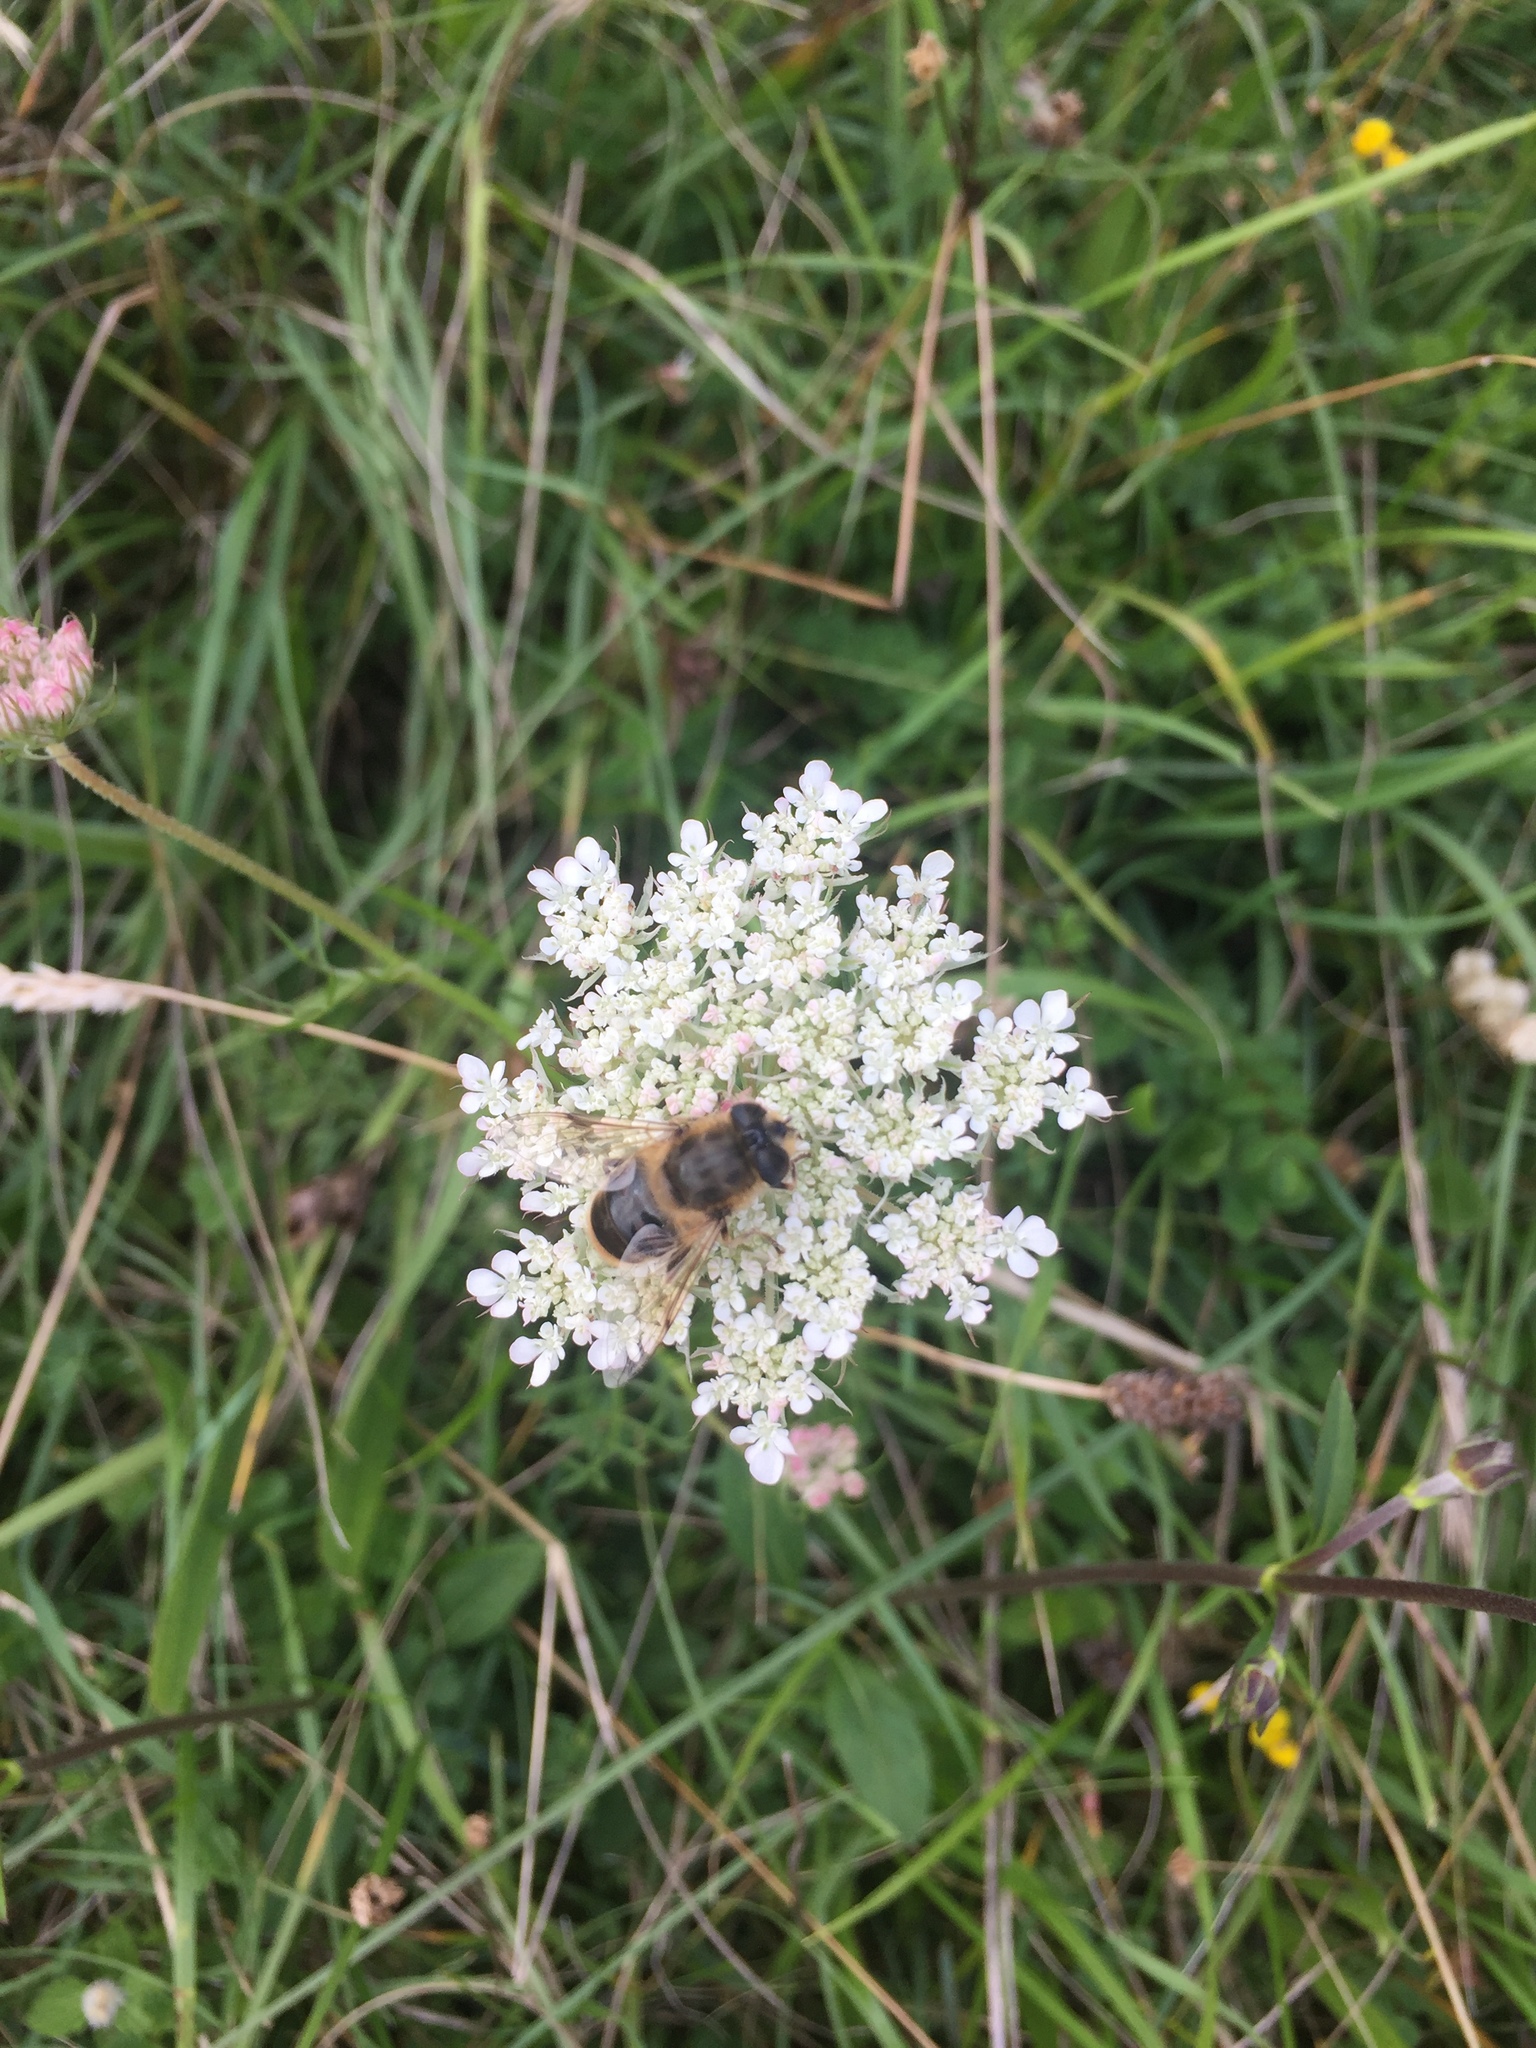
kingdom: Animalia
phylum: Arthropoda
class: Insecta
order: Diptera
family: Syrphidae
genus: Eristalis
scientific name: Eristalis tenax
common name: Drone fly
